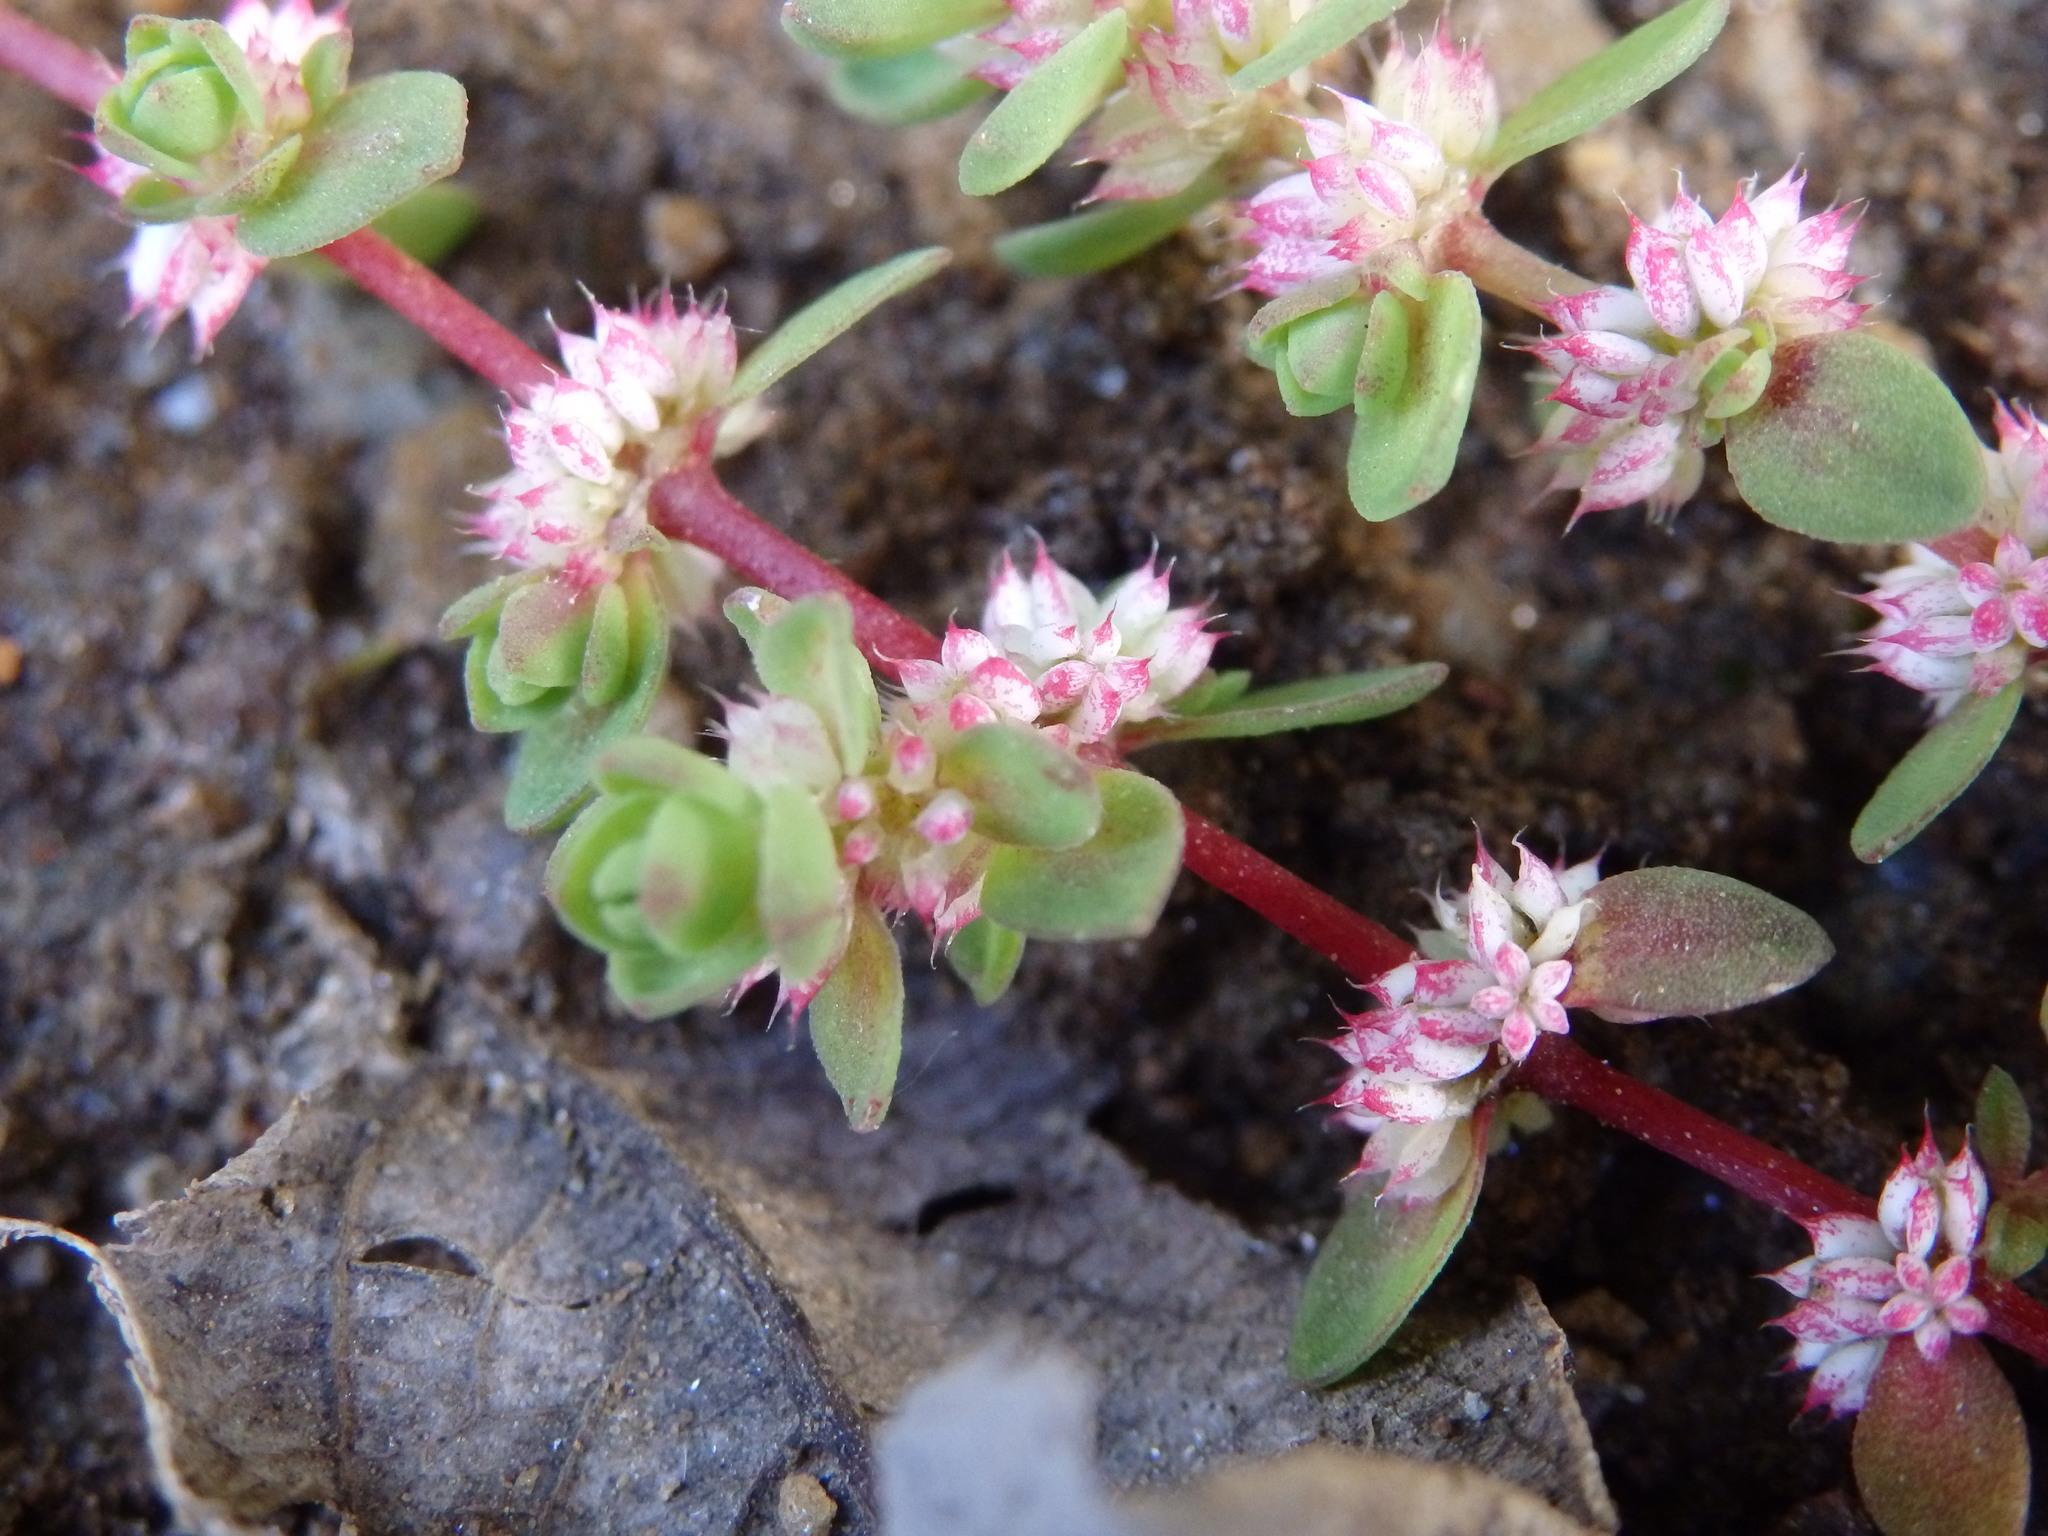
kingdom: Plantae
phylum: Tracheophyta
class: Magnoliopsida
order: Caryophyllales
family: Caryophyllaceae
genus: Illecebrum
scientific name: Illecebrum verticillatum
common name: Coral necklace
